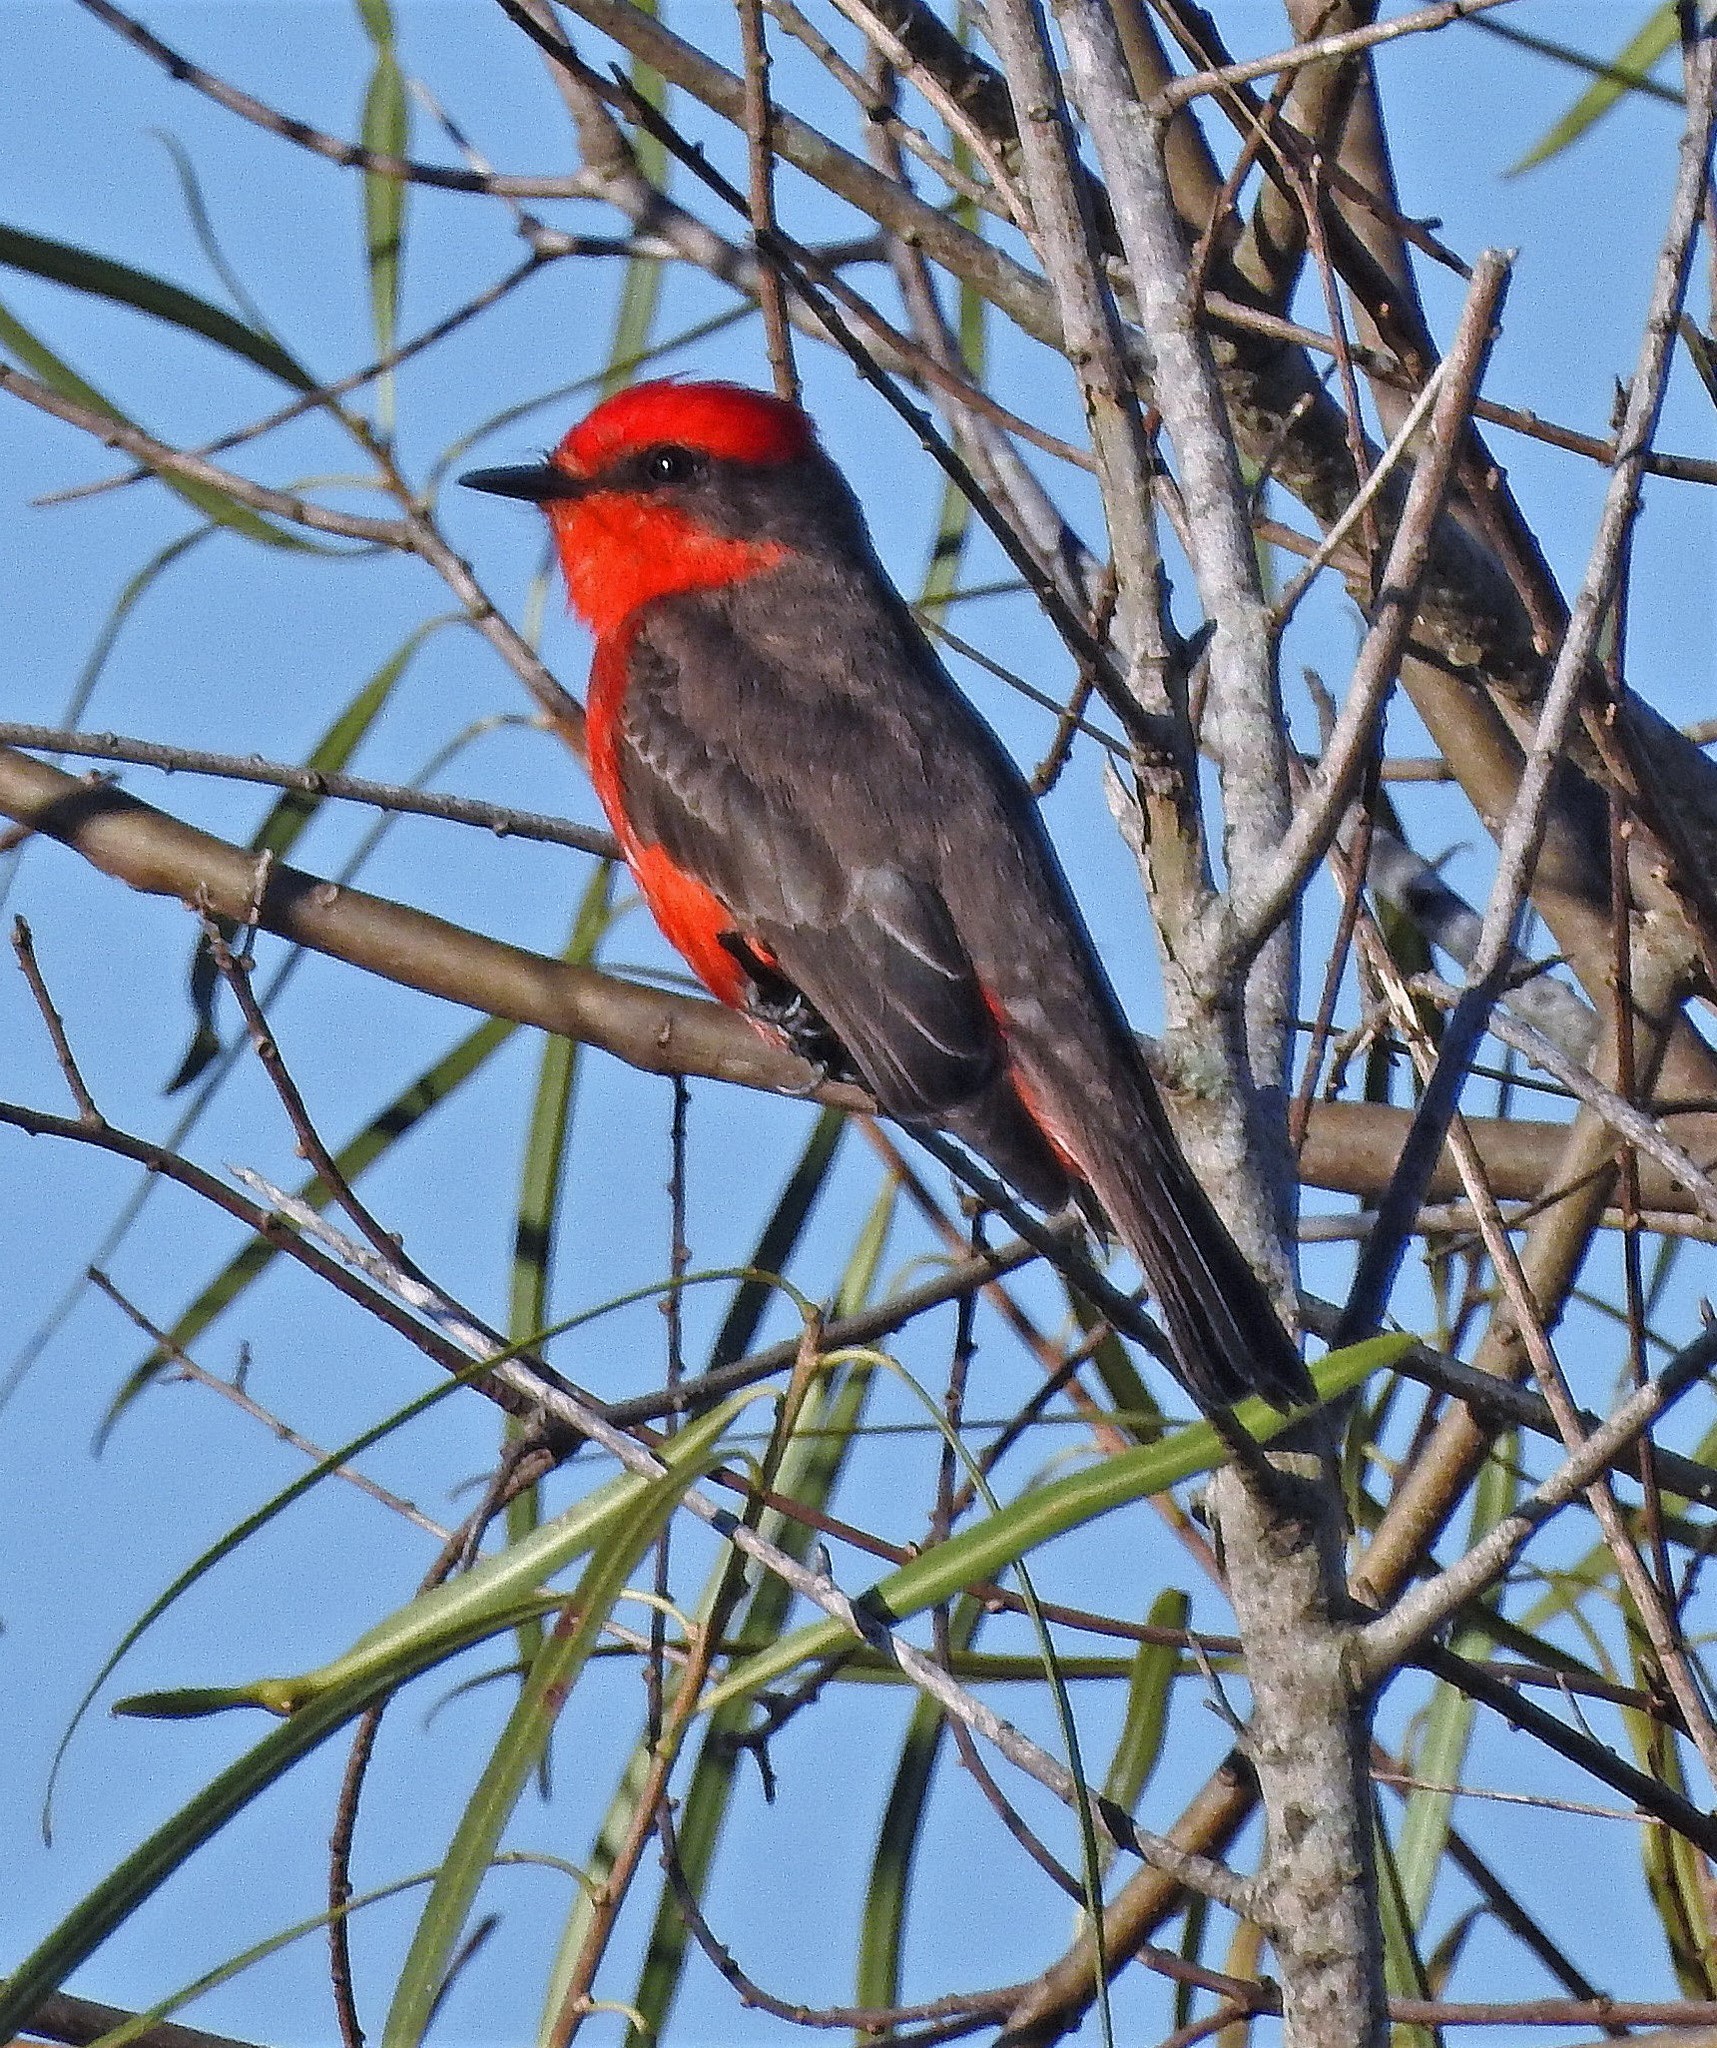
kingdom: Animalia
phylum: Chordata
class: Aves
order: Passeriformes
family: Tyrannidae
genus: Pyrocephalus
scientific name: Pyrocephalus rubinus
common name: Vermilion flycatcher
